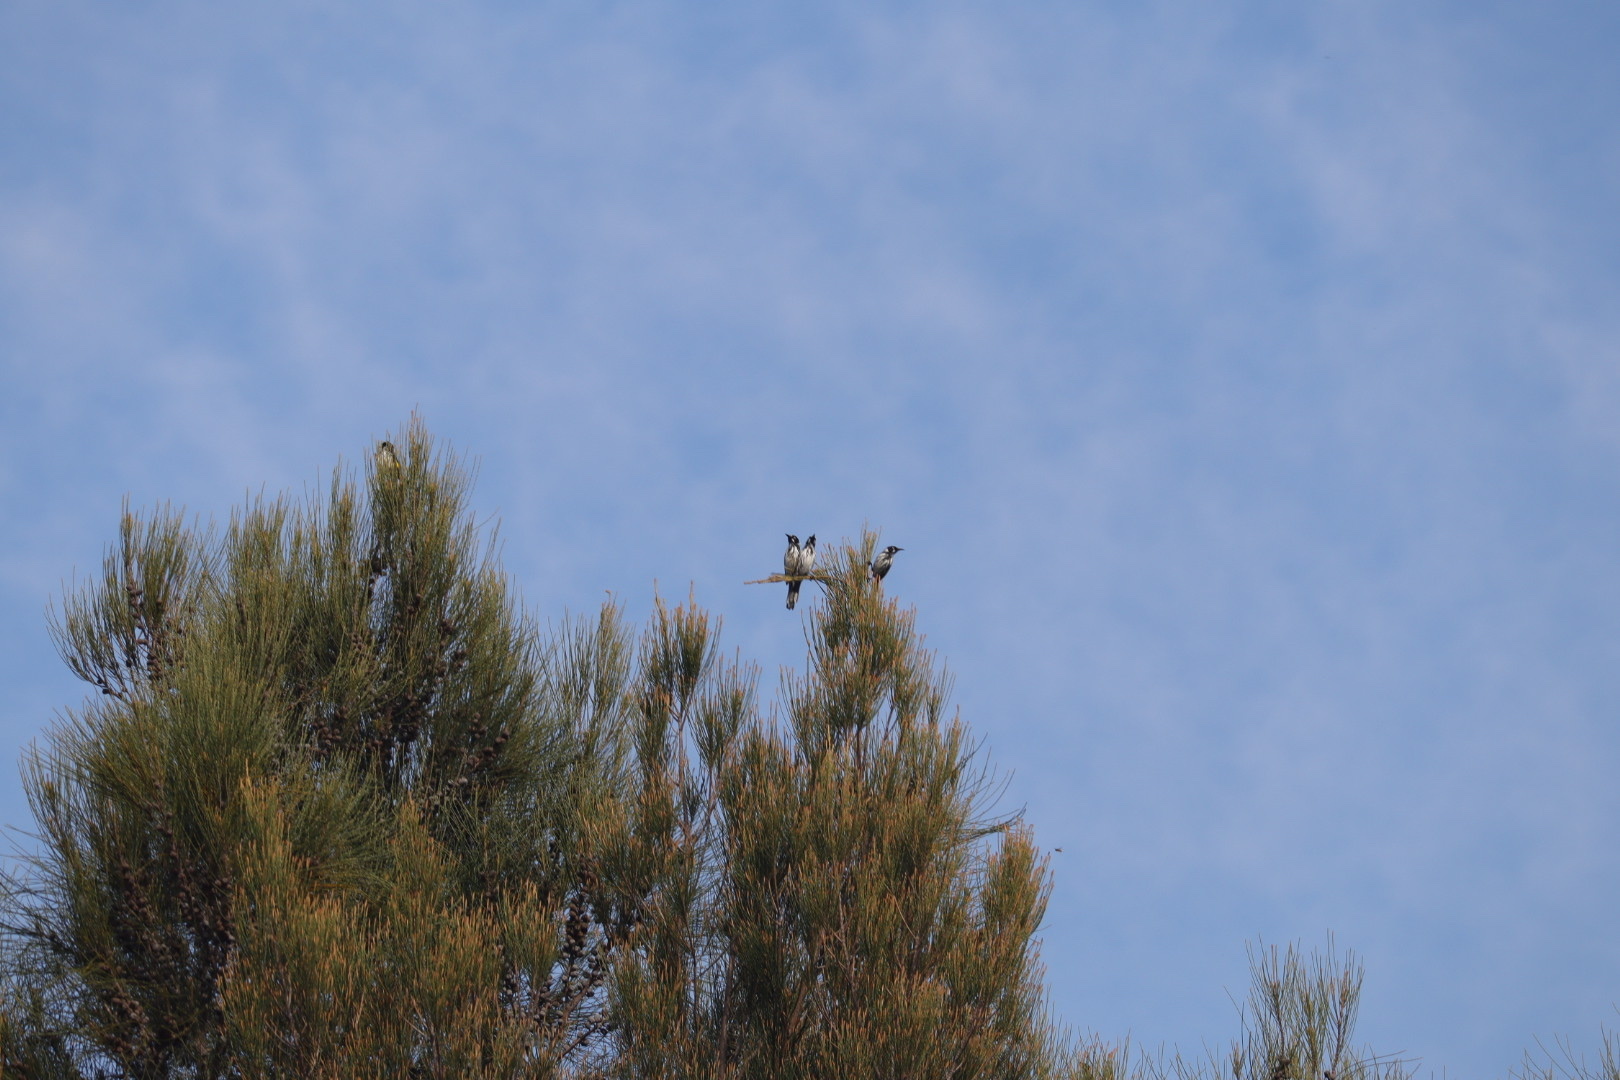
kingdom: Animalia
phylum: Chordata
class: Aves
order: Passeriformes
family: Meliphagidae
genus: Phylidonyris
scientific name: Phylidonyris novaehollandiae
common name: New holland honeyeater
